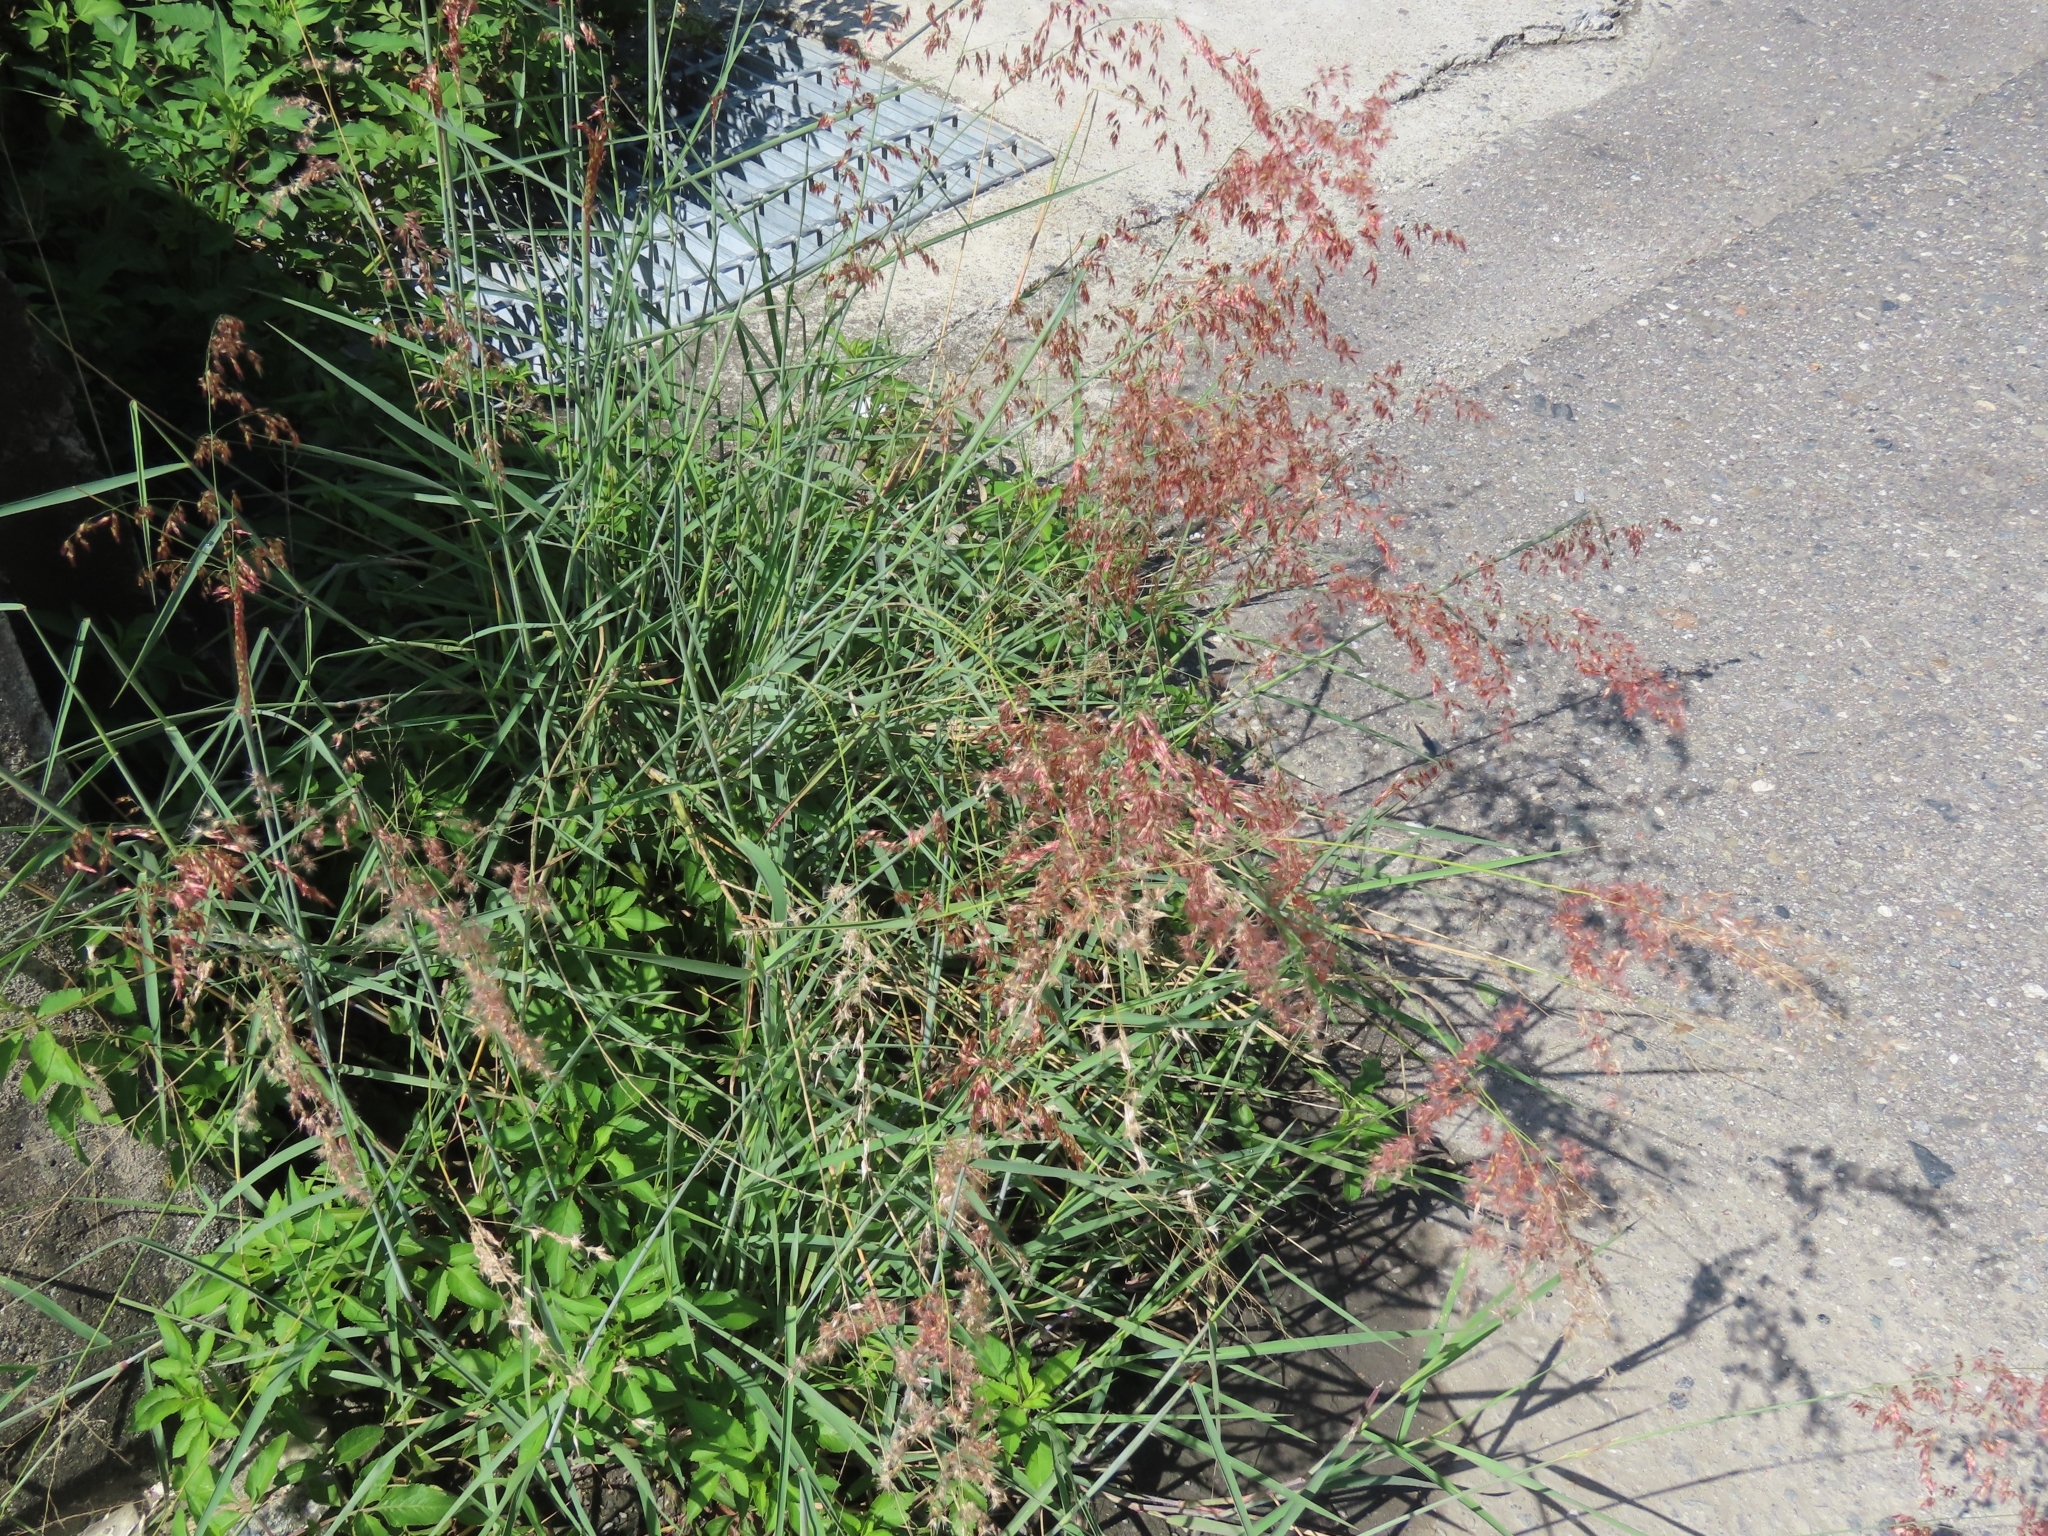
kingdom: Plantae
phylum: Tracheophyta
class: Liliopsida
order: Poales
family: Poaceae
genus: Melinis
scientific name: Melinis repens
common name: Rose natal grass
